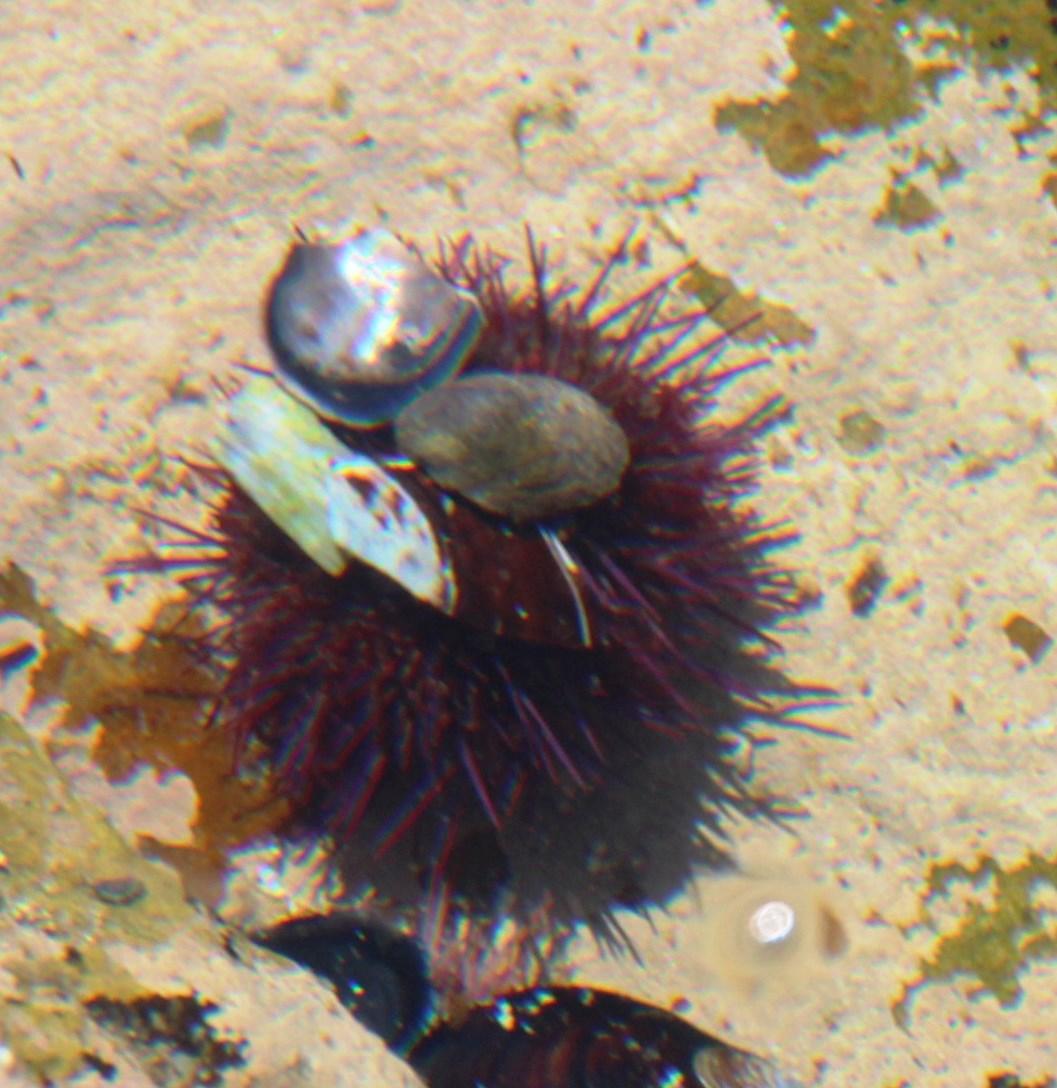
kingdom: Animalia
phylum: Echinodermata
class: Echinoidea
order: Camarodonta
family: Parechinidae
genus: Parechinus
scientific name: Parechinus angulosus
